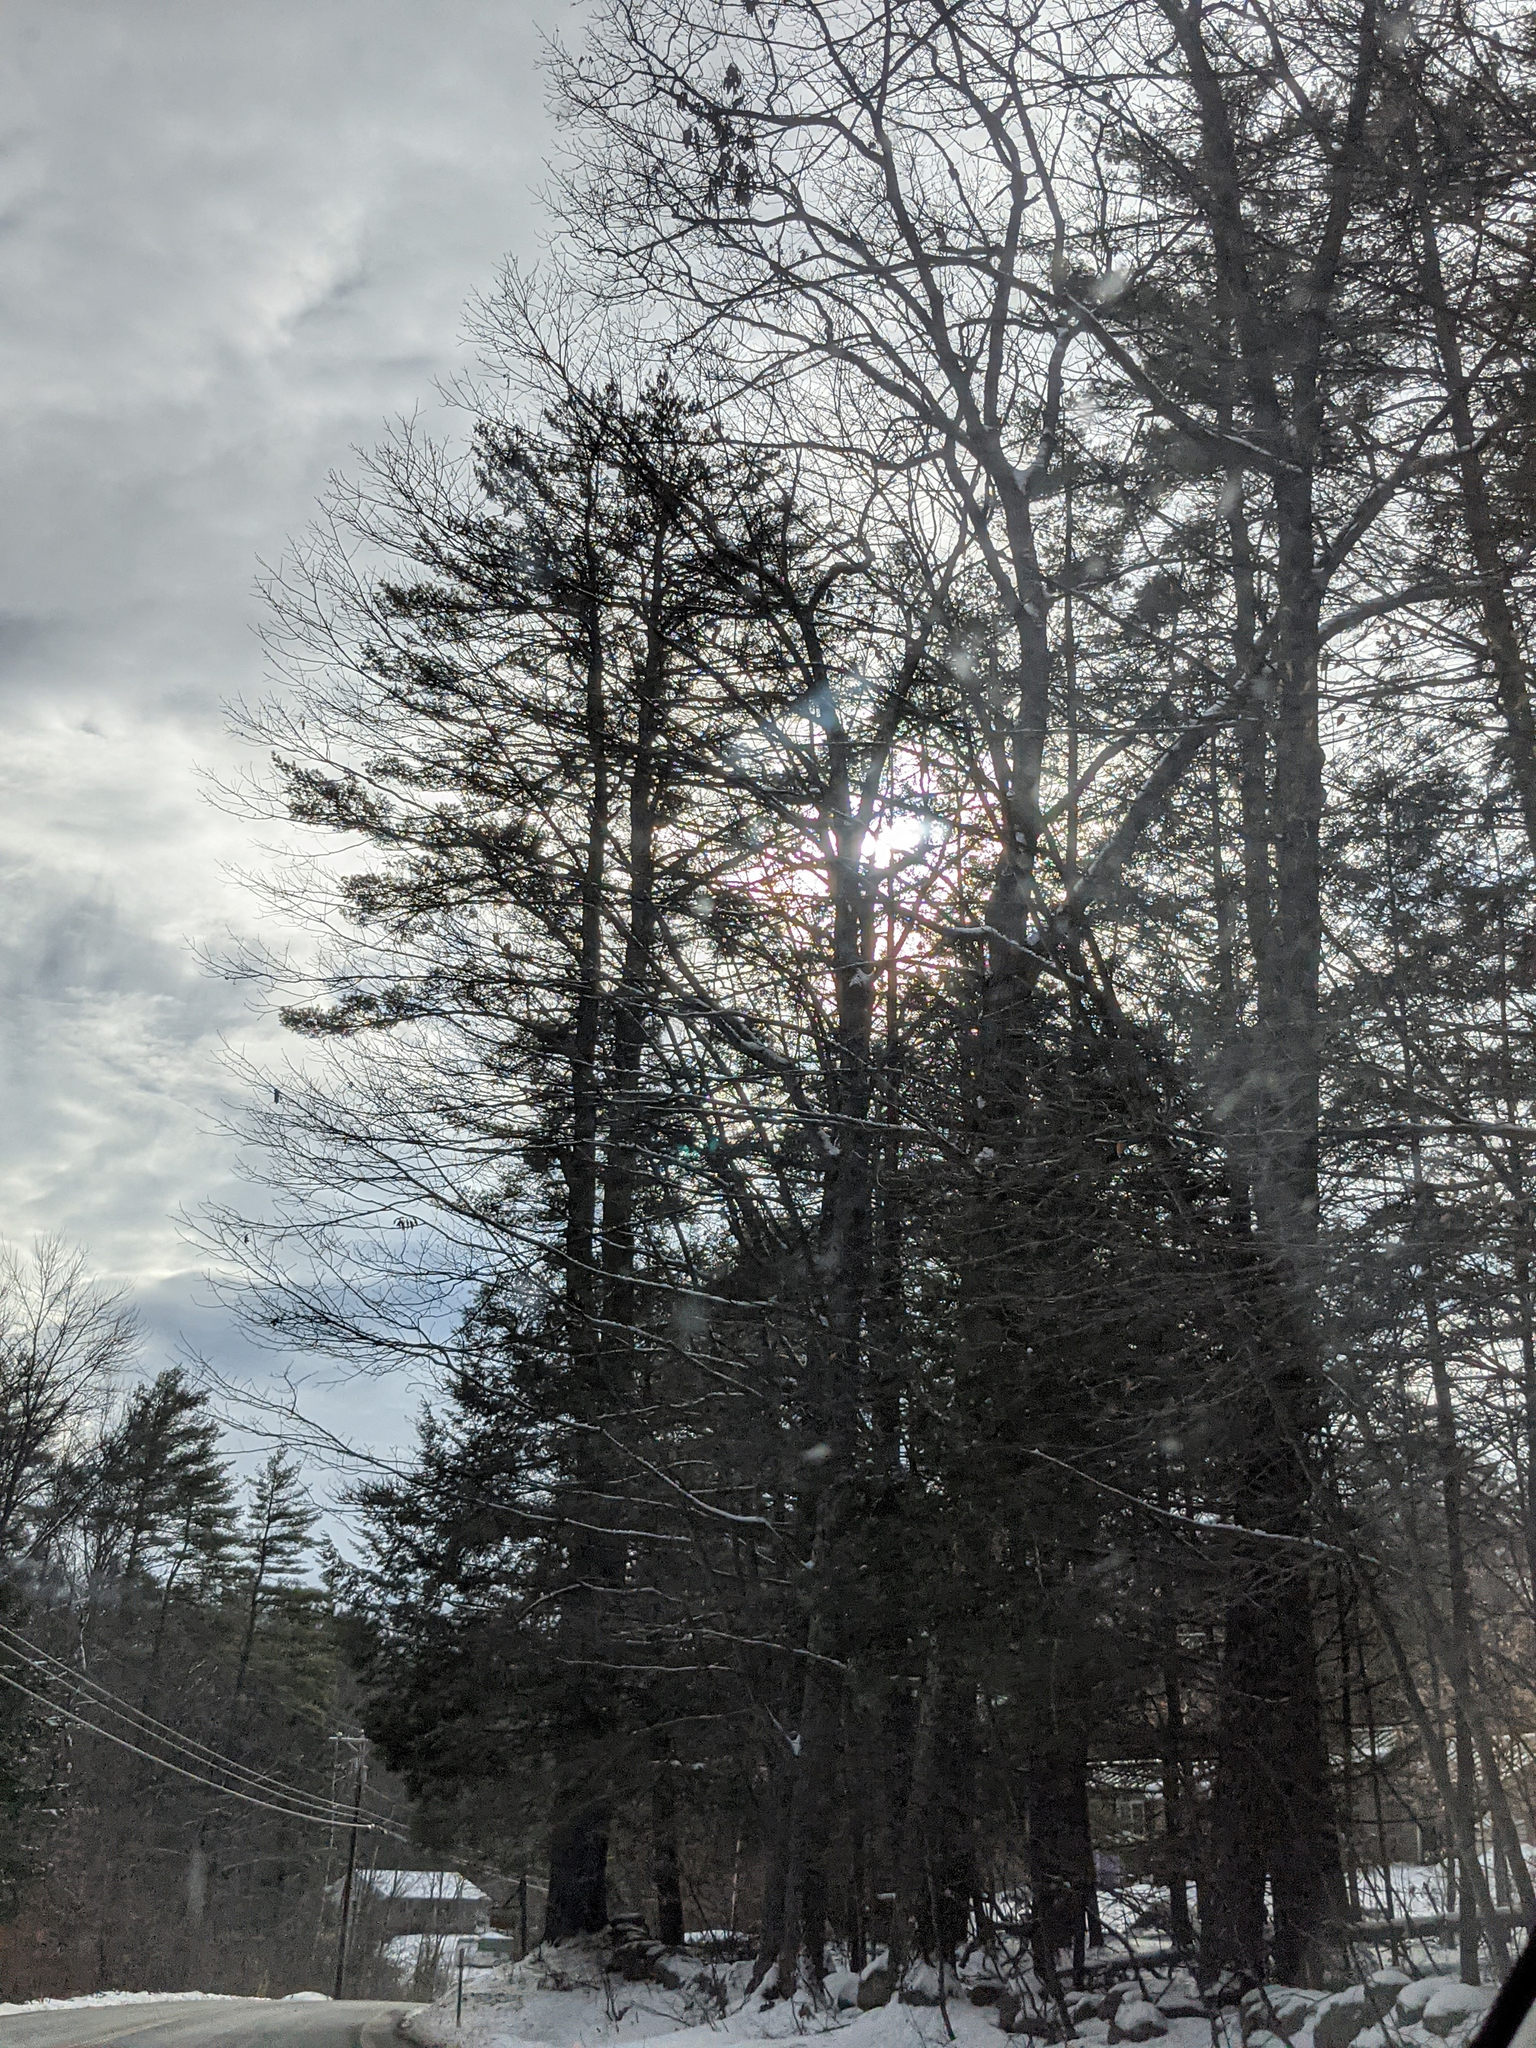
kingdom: Plantae
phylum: Tracheophyta
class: Pinopsida
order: Pinales
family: Pinaceae
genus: Pinus
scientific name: Pinus strobus
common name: Weymouth pine
